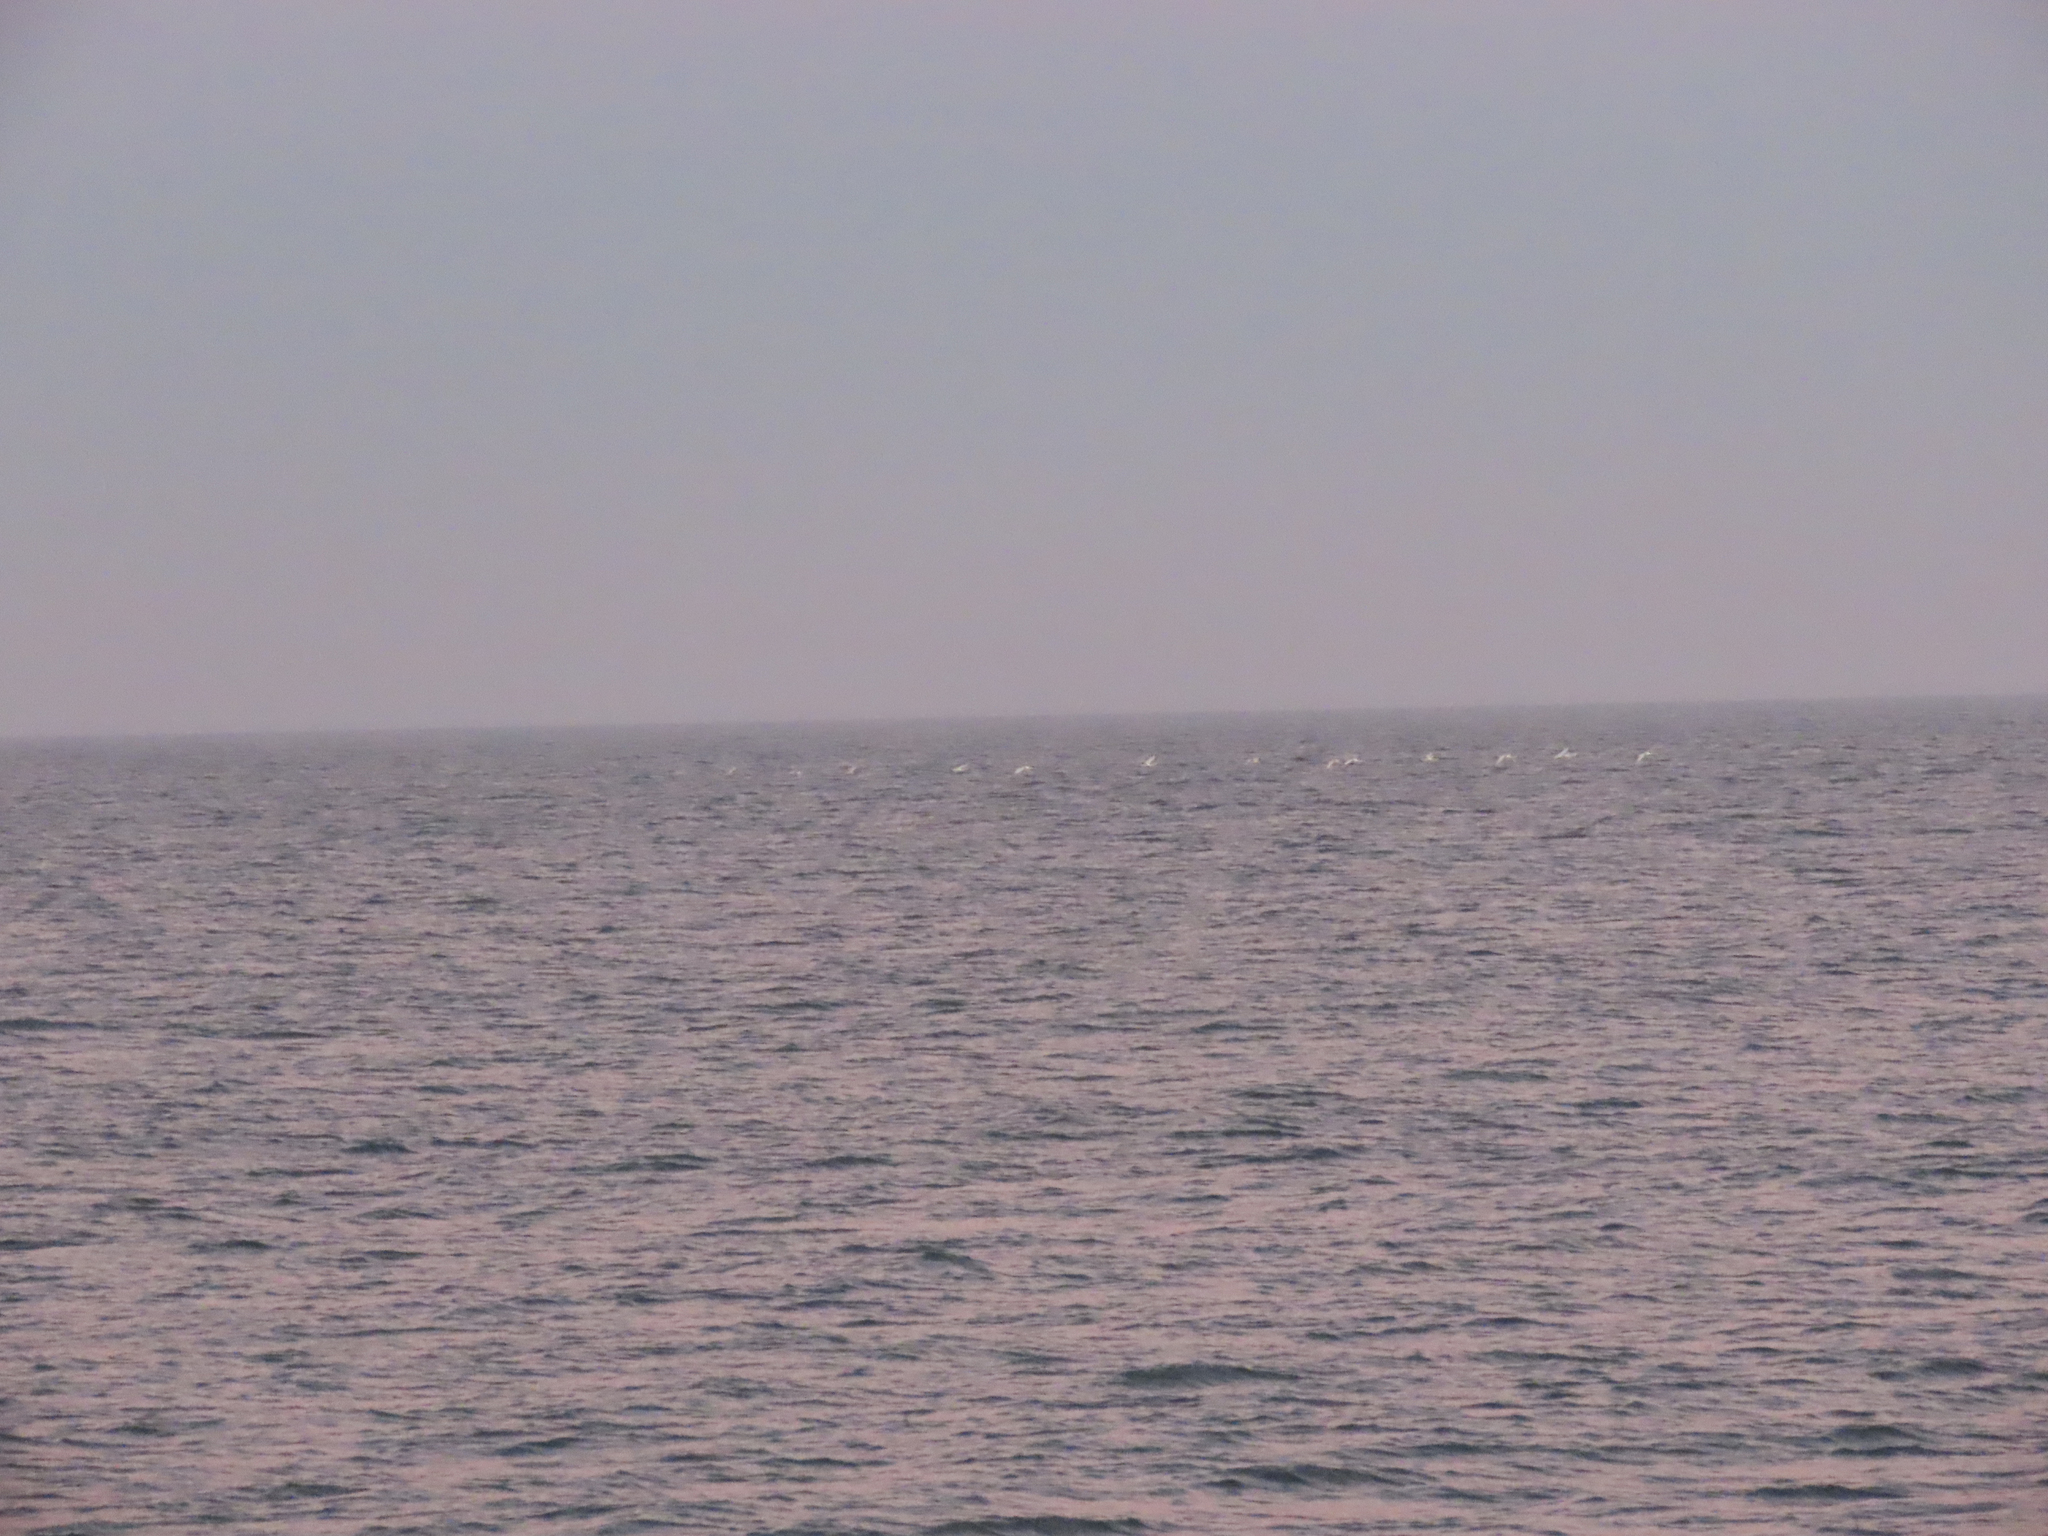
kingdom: Animalia
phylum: Chordata
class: Aves
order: Anseriformes
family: Anatidae
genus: Cygnus
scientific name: Cygnus columbianus
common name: Tundra swan
